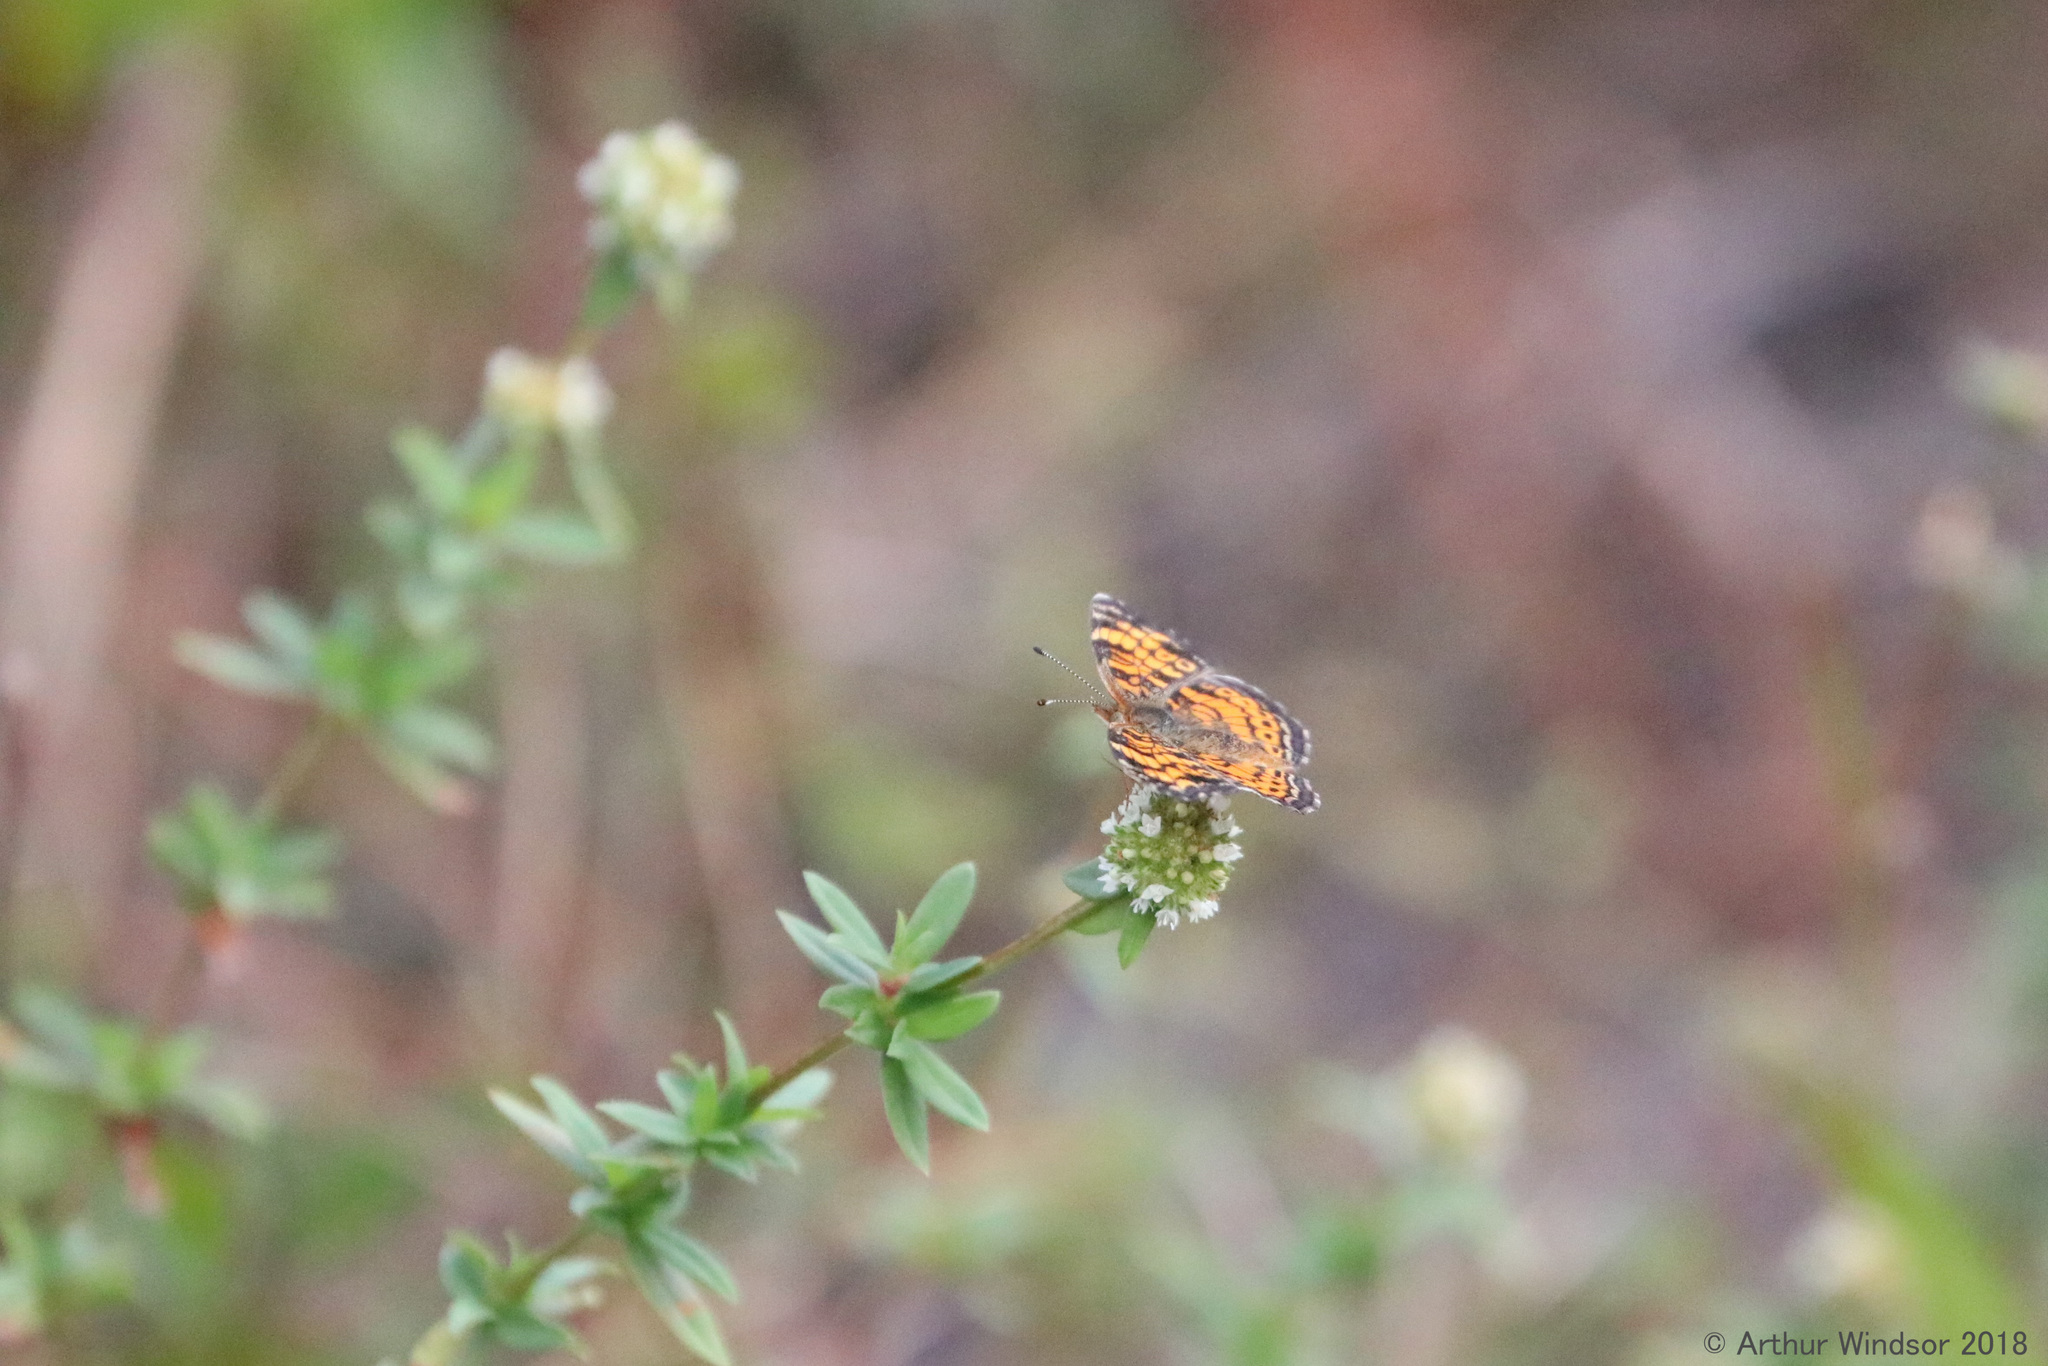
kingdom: Animalia
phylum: Arthropoda
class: Insecta
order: Lepidoptera
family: Nymphalidae
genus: Phyciodes
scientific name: Phyciodes tharos
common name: Pearl crescent
